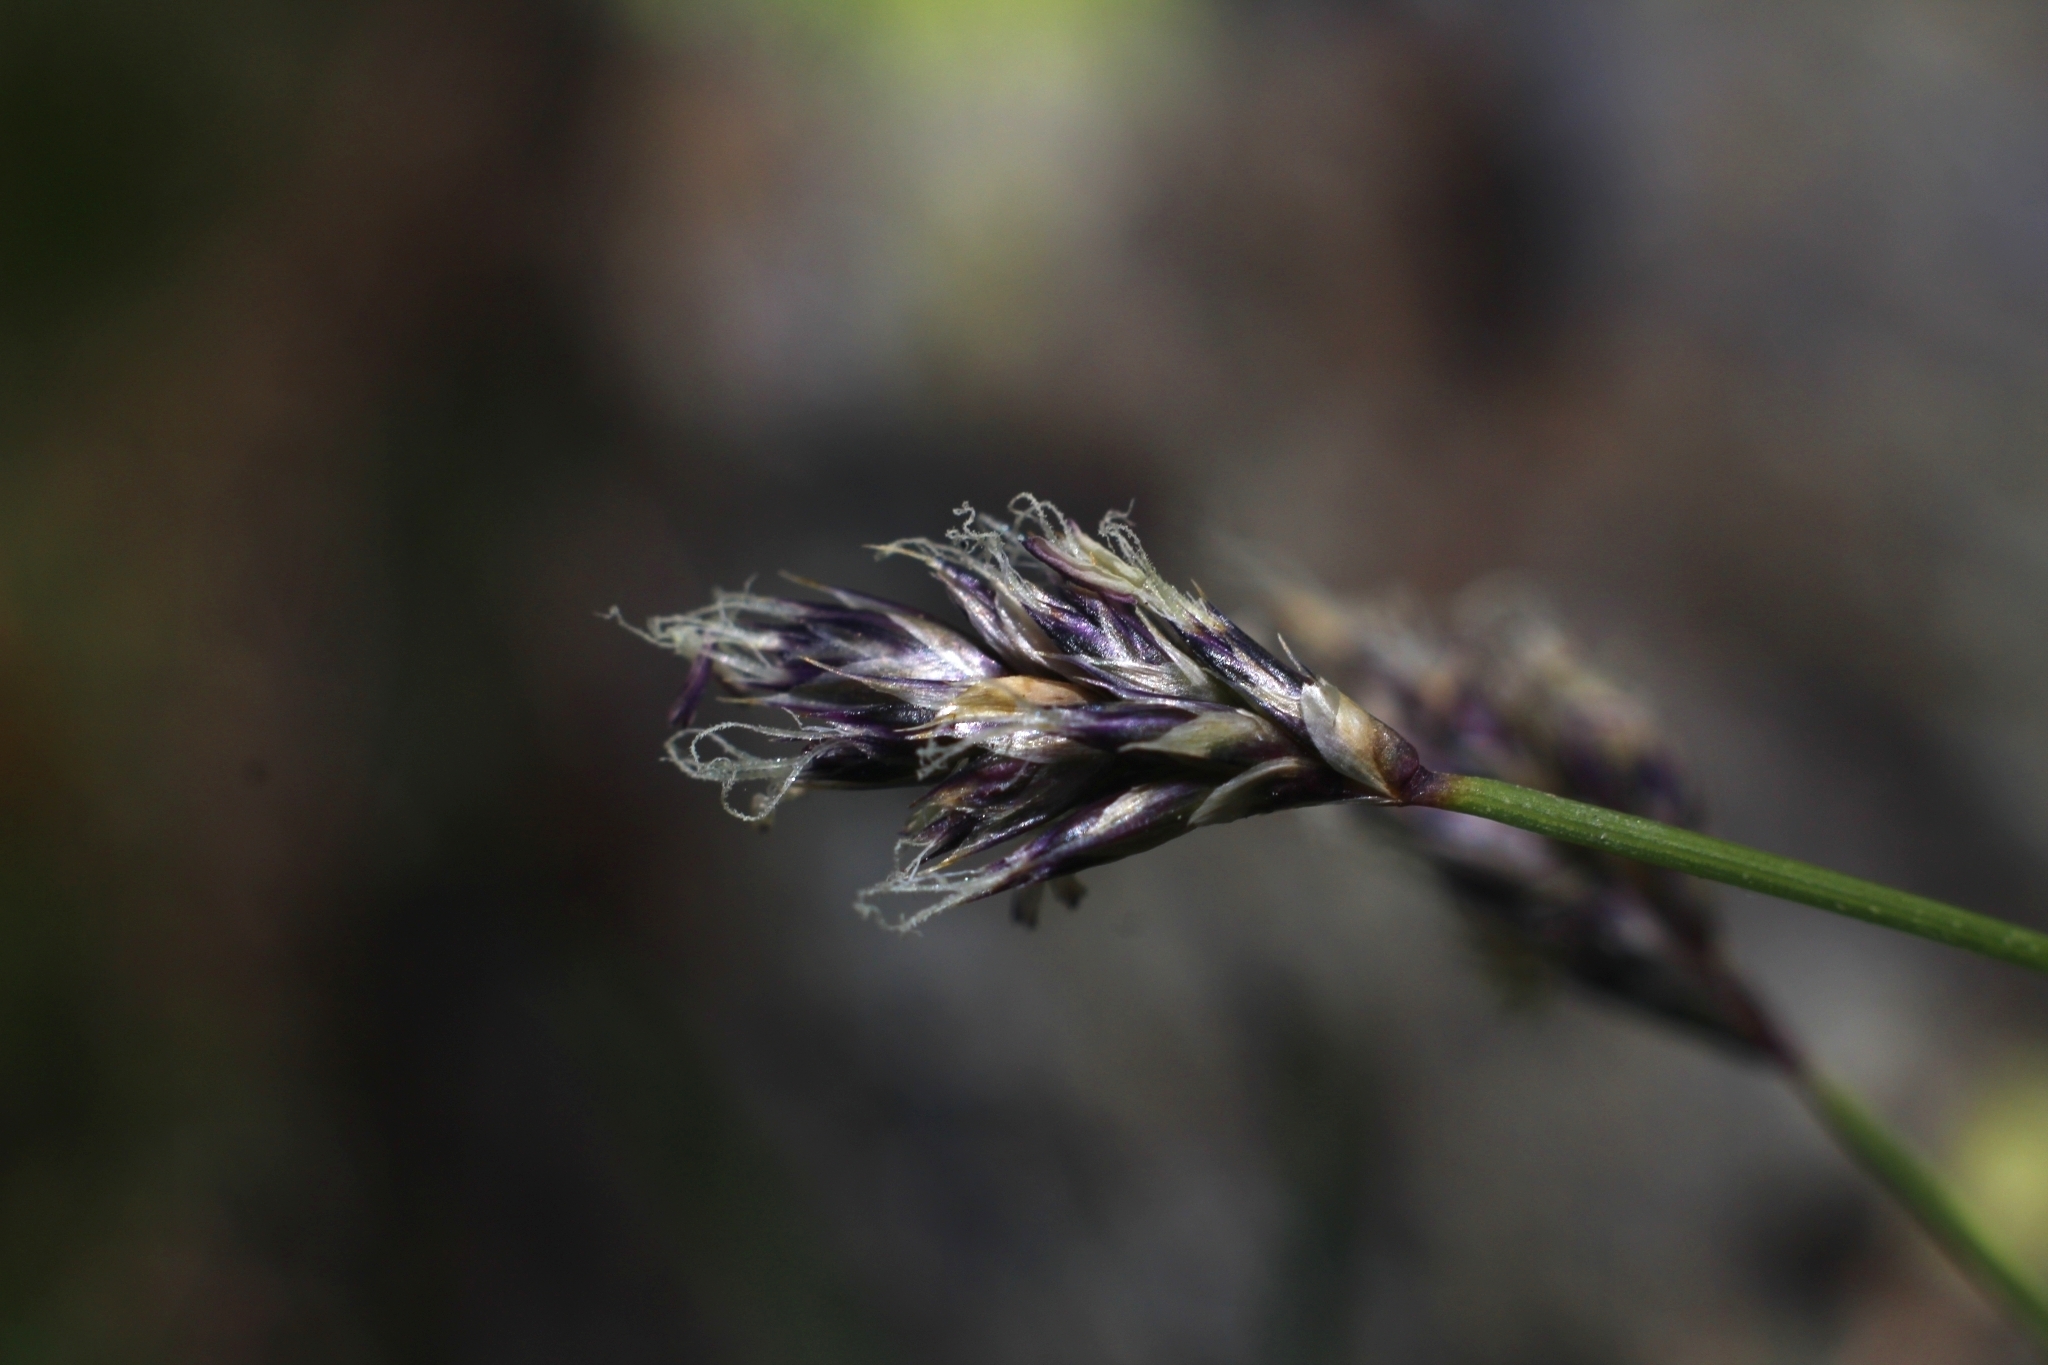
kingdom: Plantae
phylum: Tracheophyta
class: Liliopsida
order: Poales
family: Poaceae
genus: Sesleria
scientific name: Sesleria caerulea
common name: Blue moor-grass
